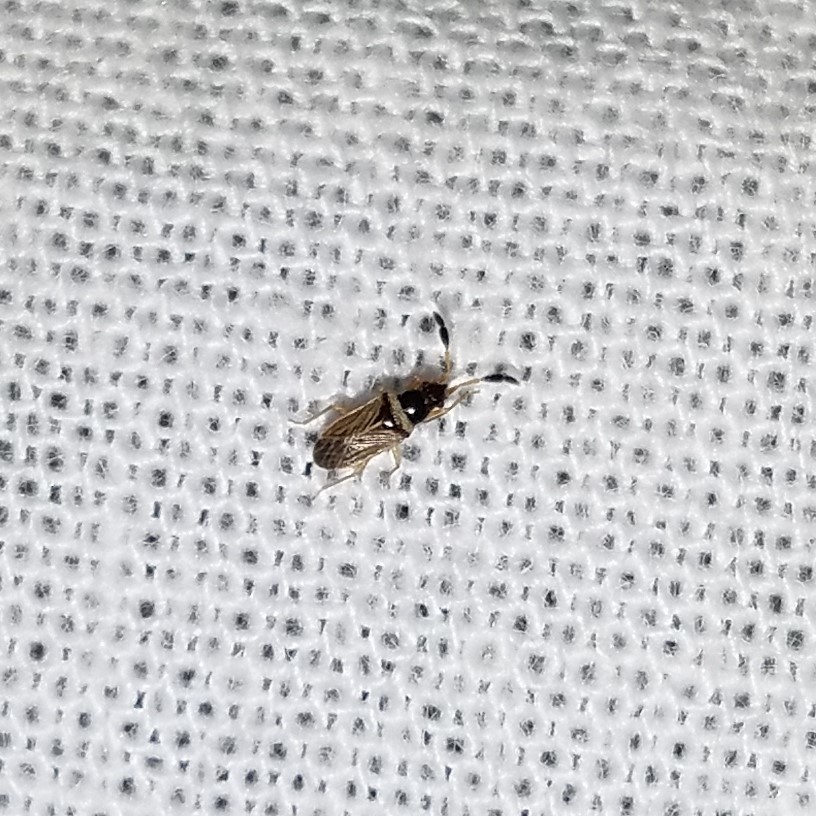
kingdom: Animalia
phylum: Arthropoda
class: Insecta
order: Hemiptera
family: Rhyparochromidae
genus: Ptochiomera
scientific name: Ptochiomera nodosa
